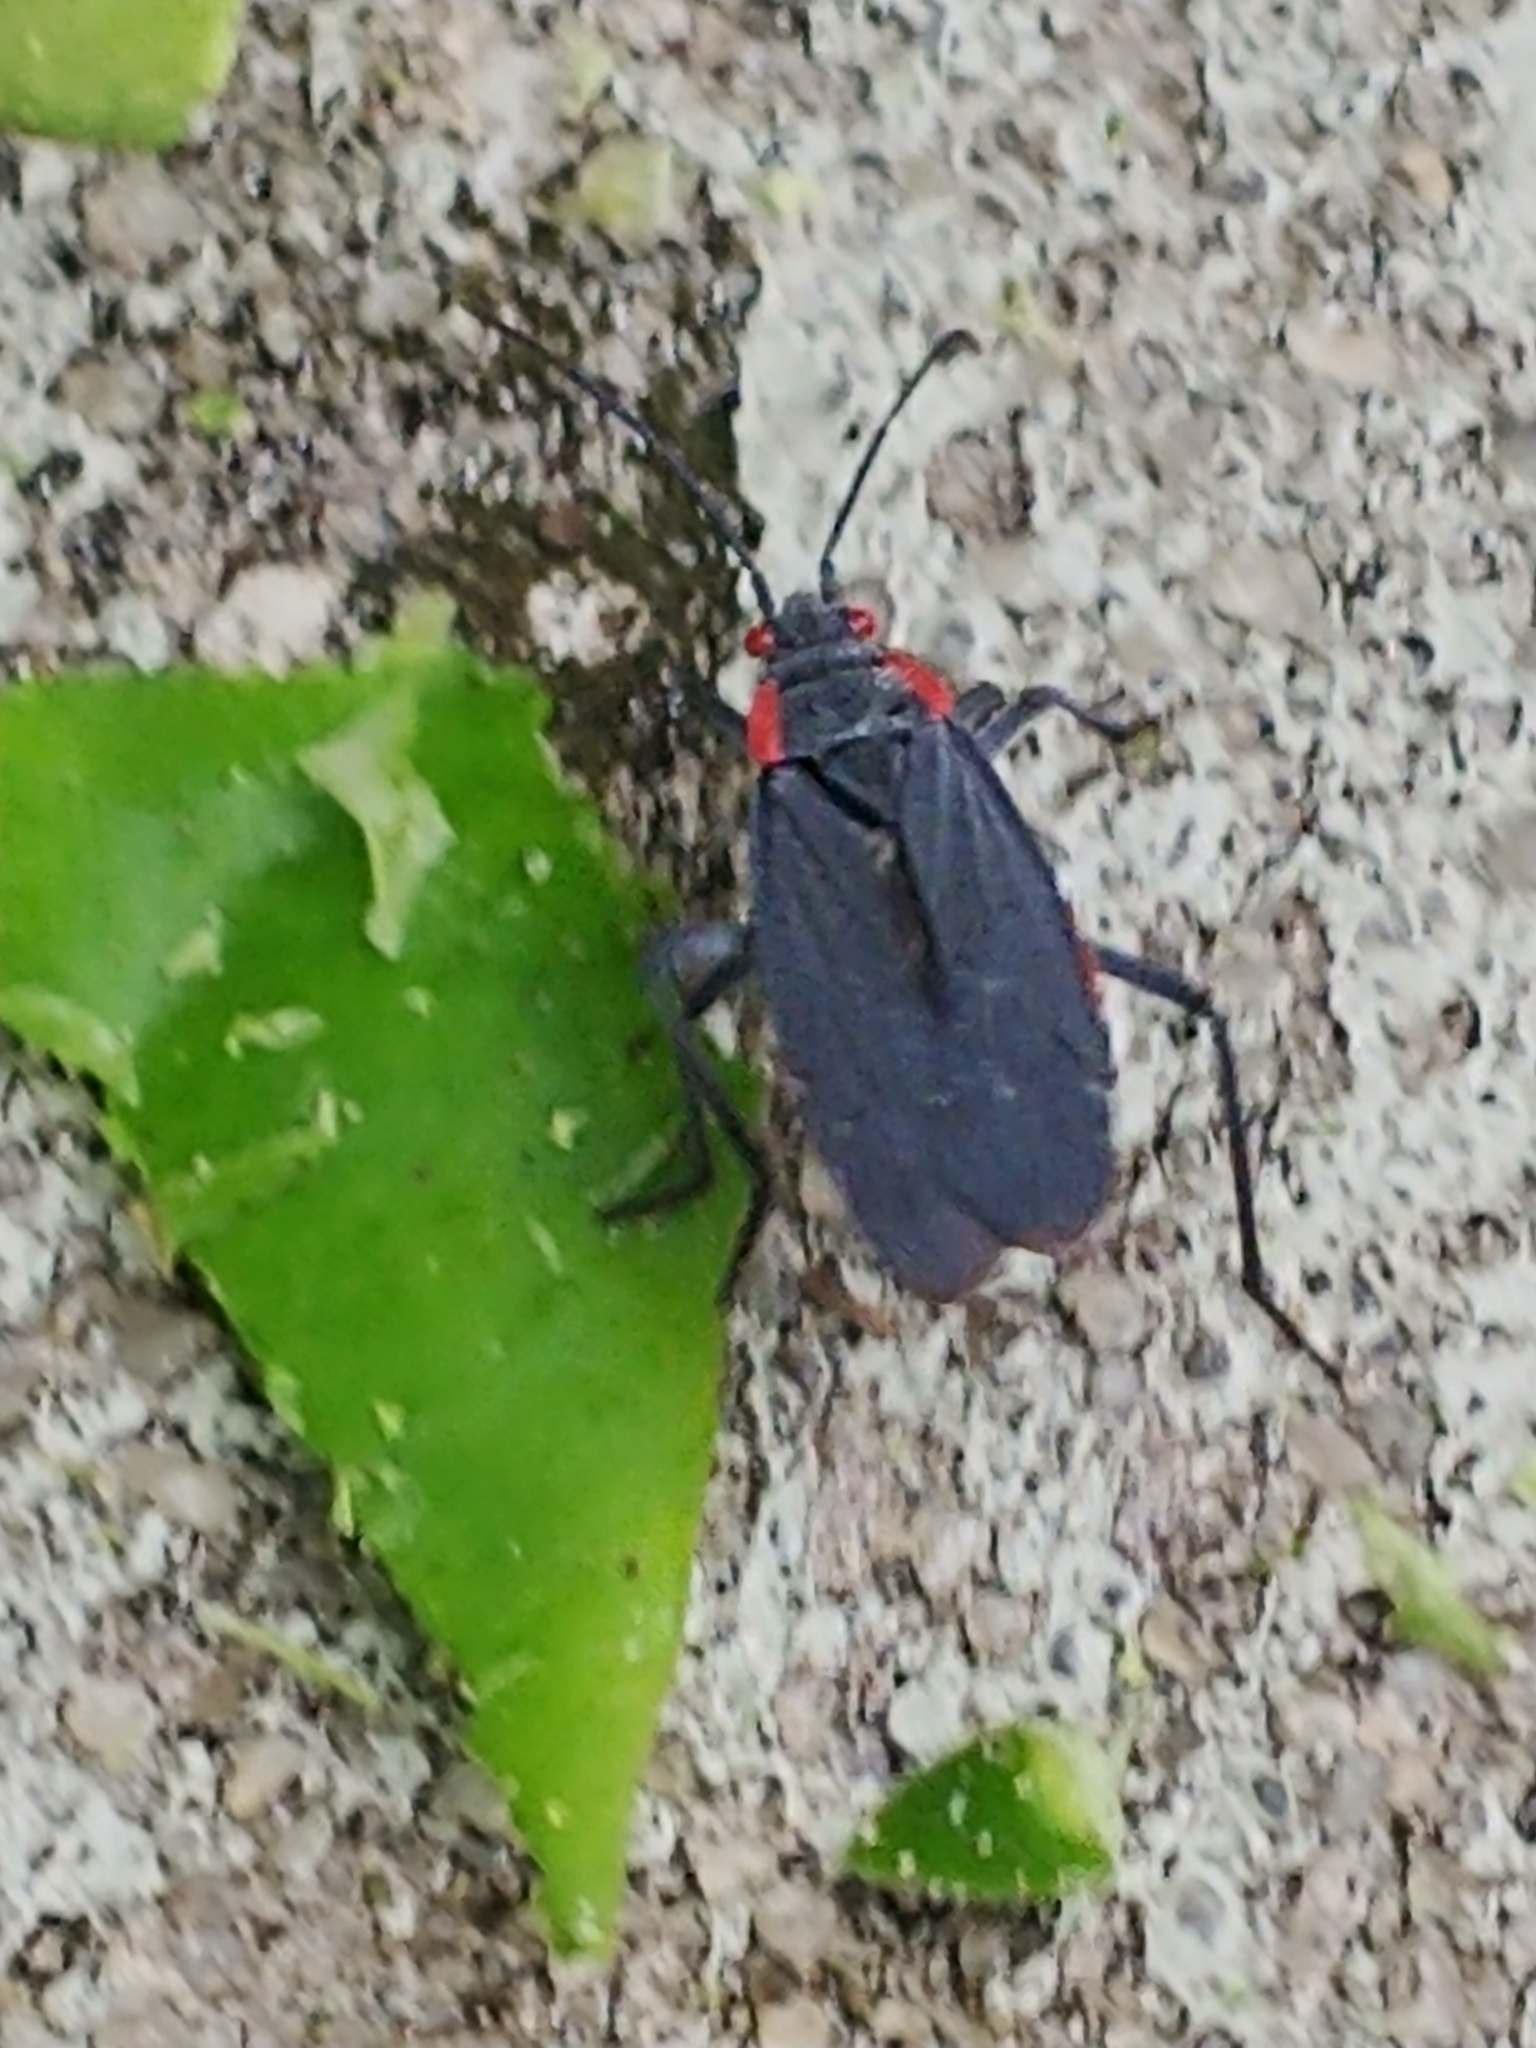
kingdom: Animalia
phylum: Arthropoda
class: Insecta
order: Hemiptera
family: Rhopalidae
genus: Jadera
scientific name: Jadera haematoloma
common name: Red-shouldered bug
